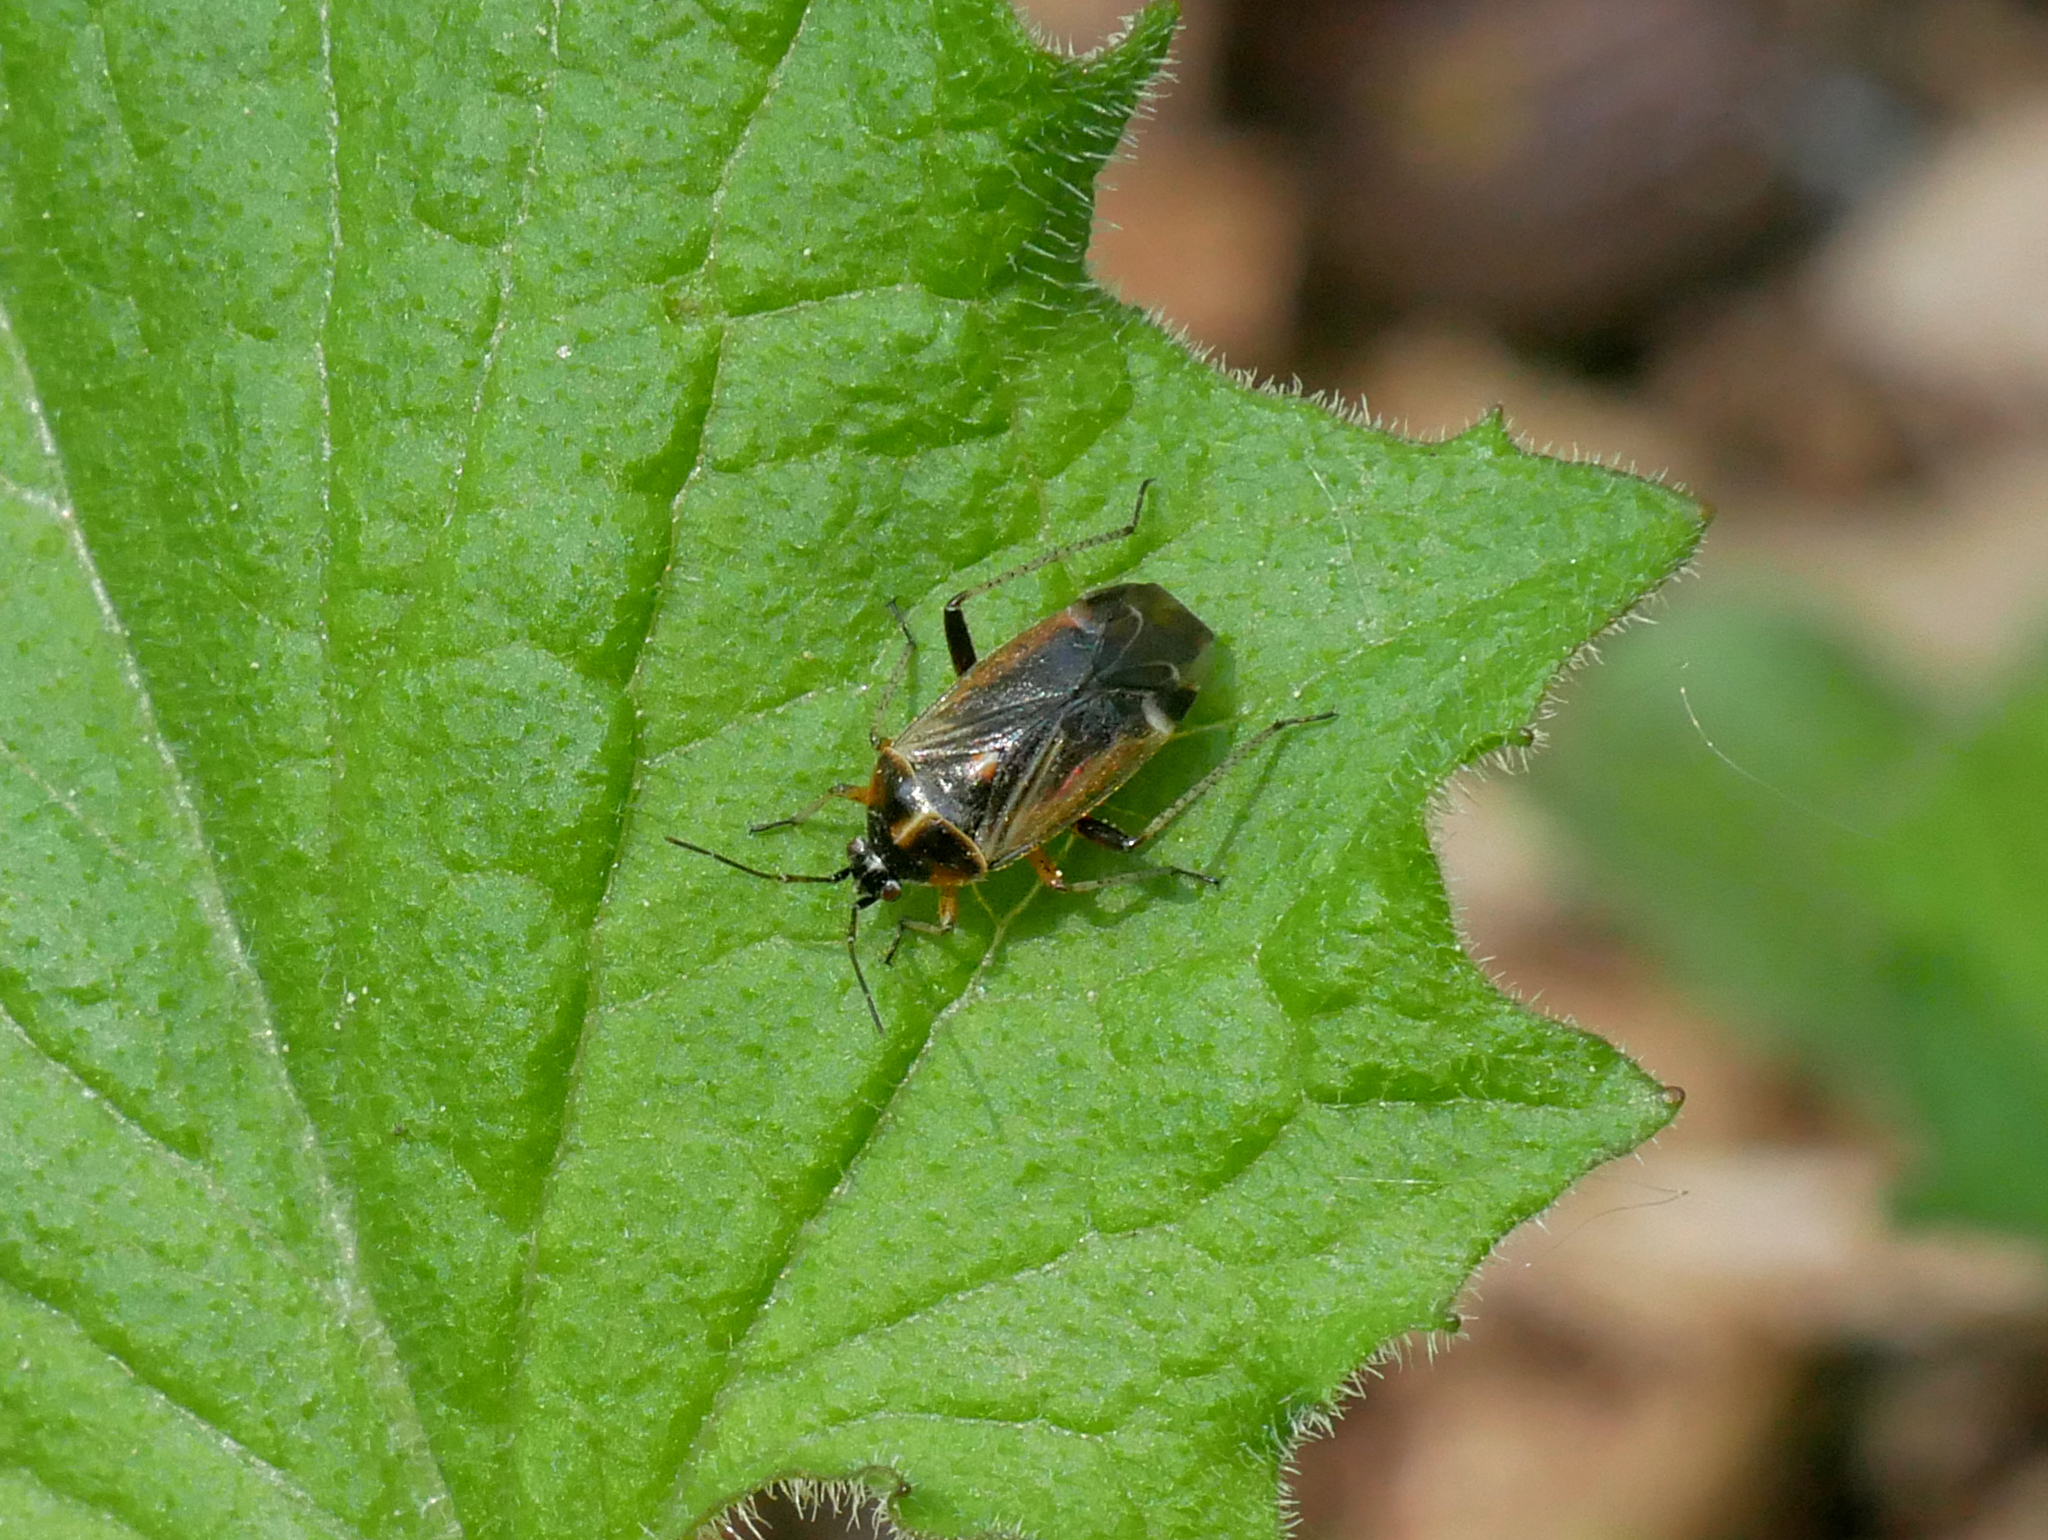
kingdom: Animalia
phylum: Arthropoda
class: Insecta
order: Hemiptera
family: Miridae
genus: Harpocera
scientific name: Harpocera thoracica
